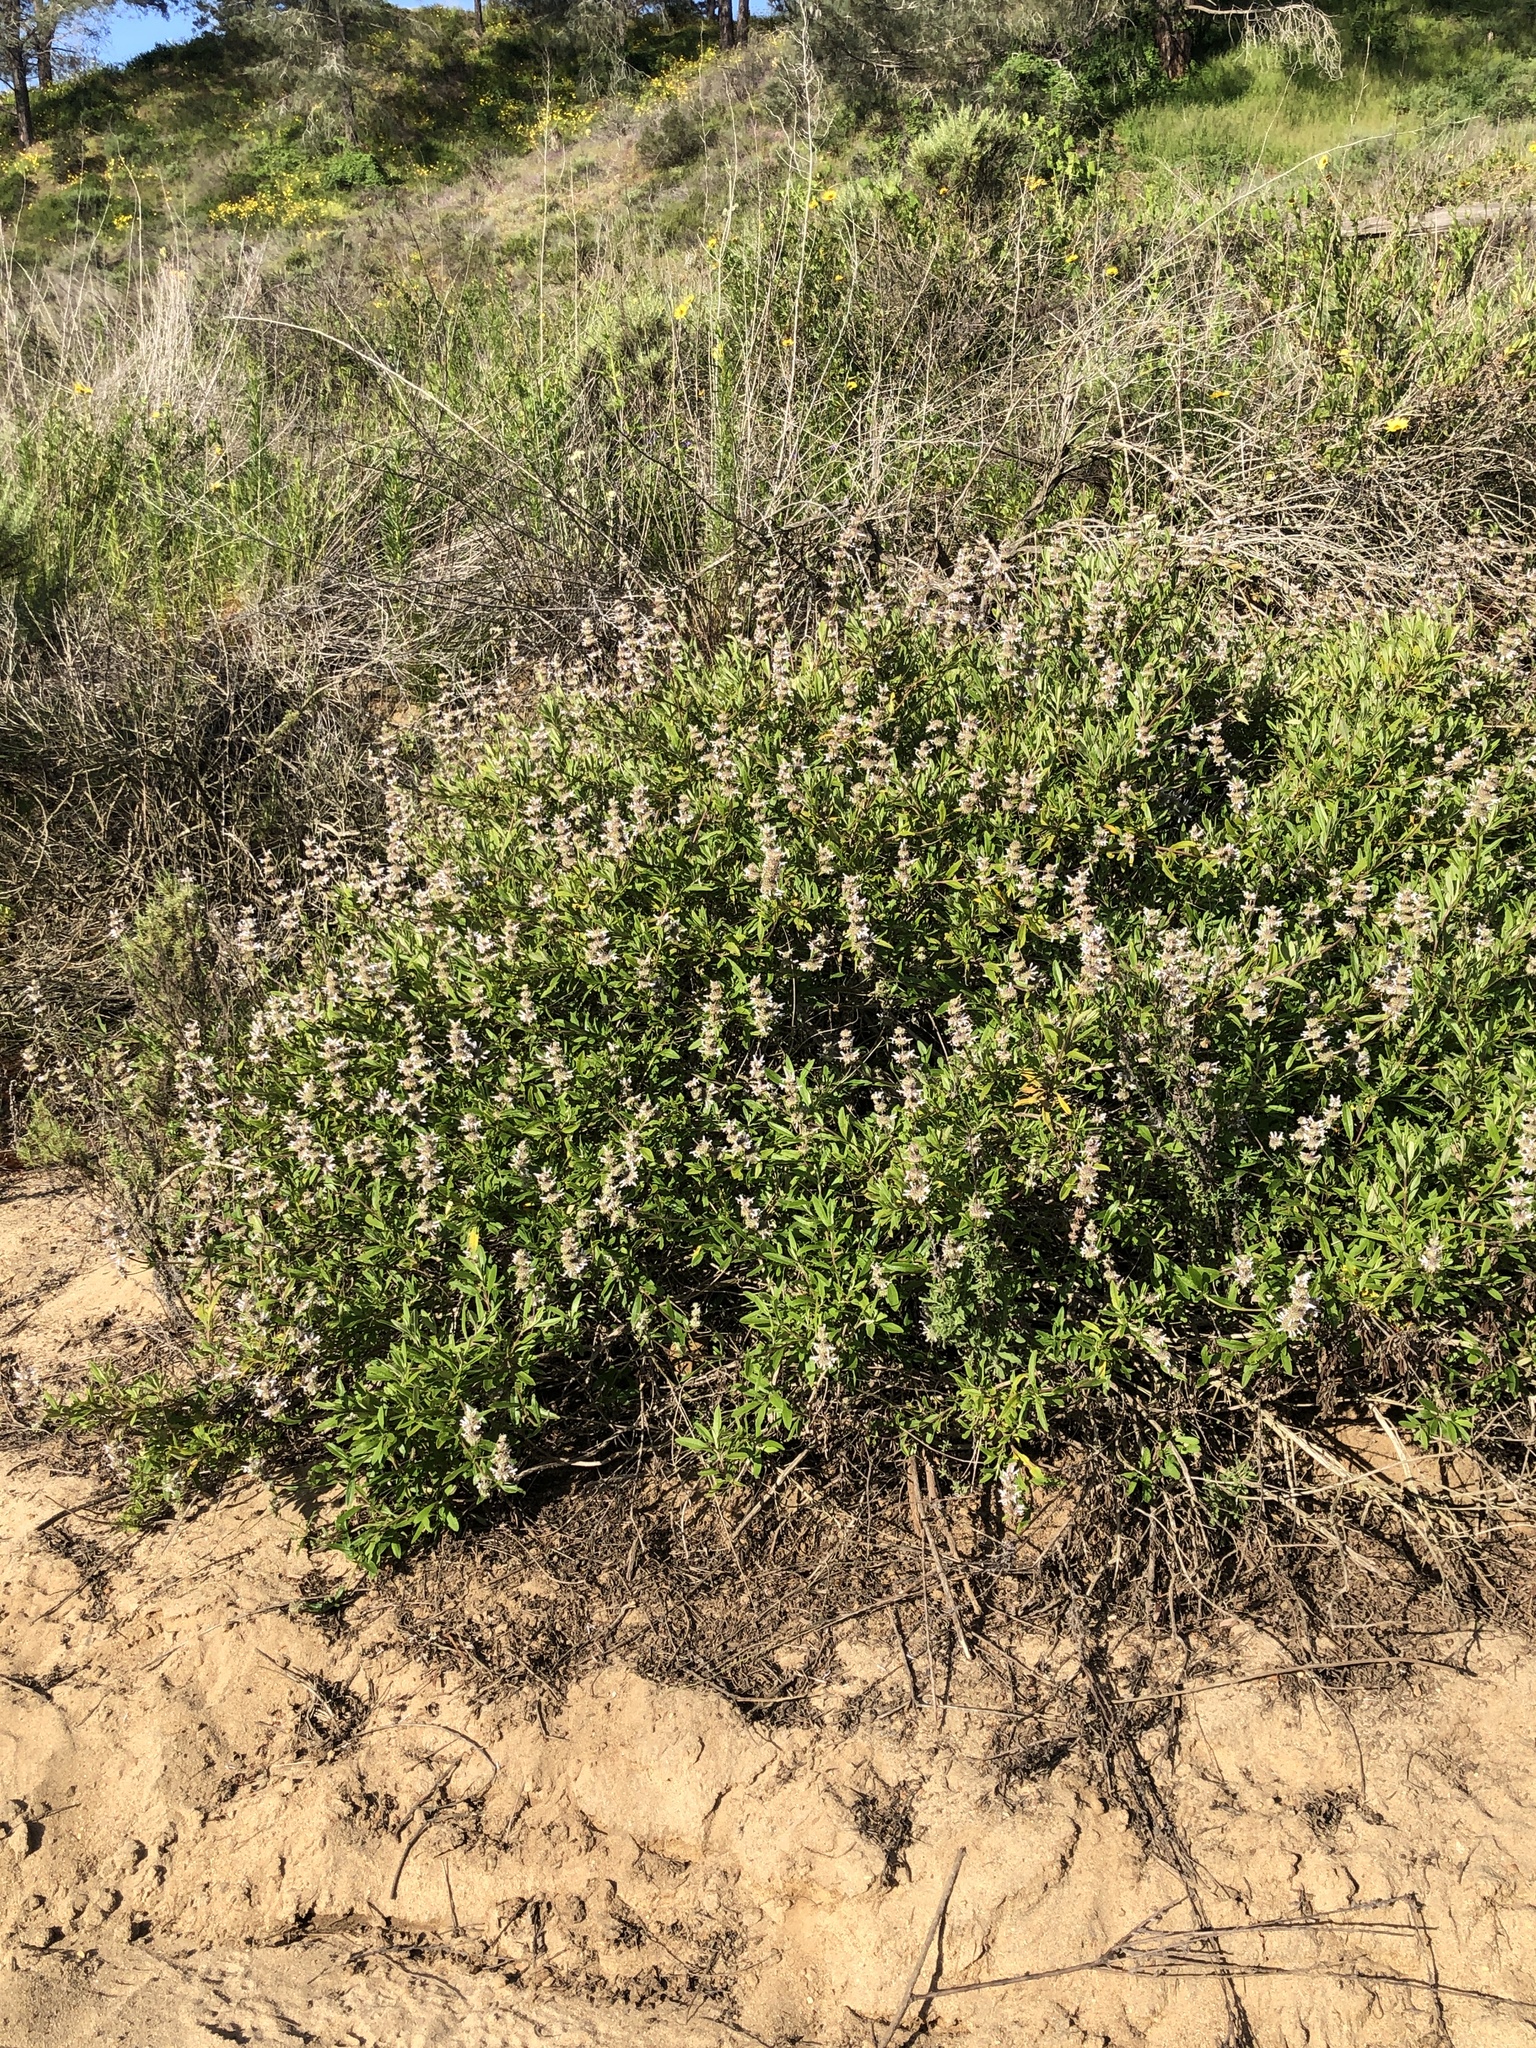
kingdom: Plantae
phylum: Tracheophyta
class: Magnoliopsida
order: Lamiales
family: Lamiaceae
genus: Salvia
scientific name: Salvia mellifera
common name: Black sage
